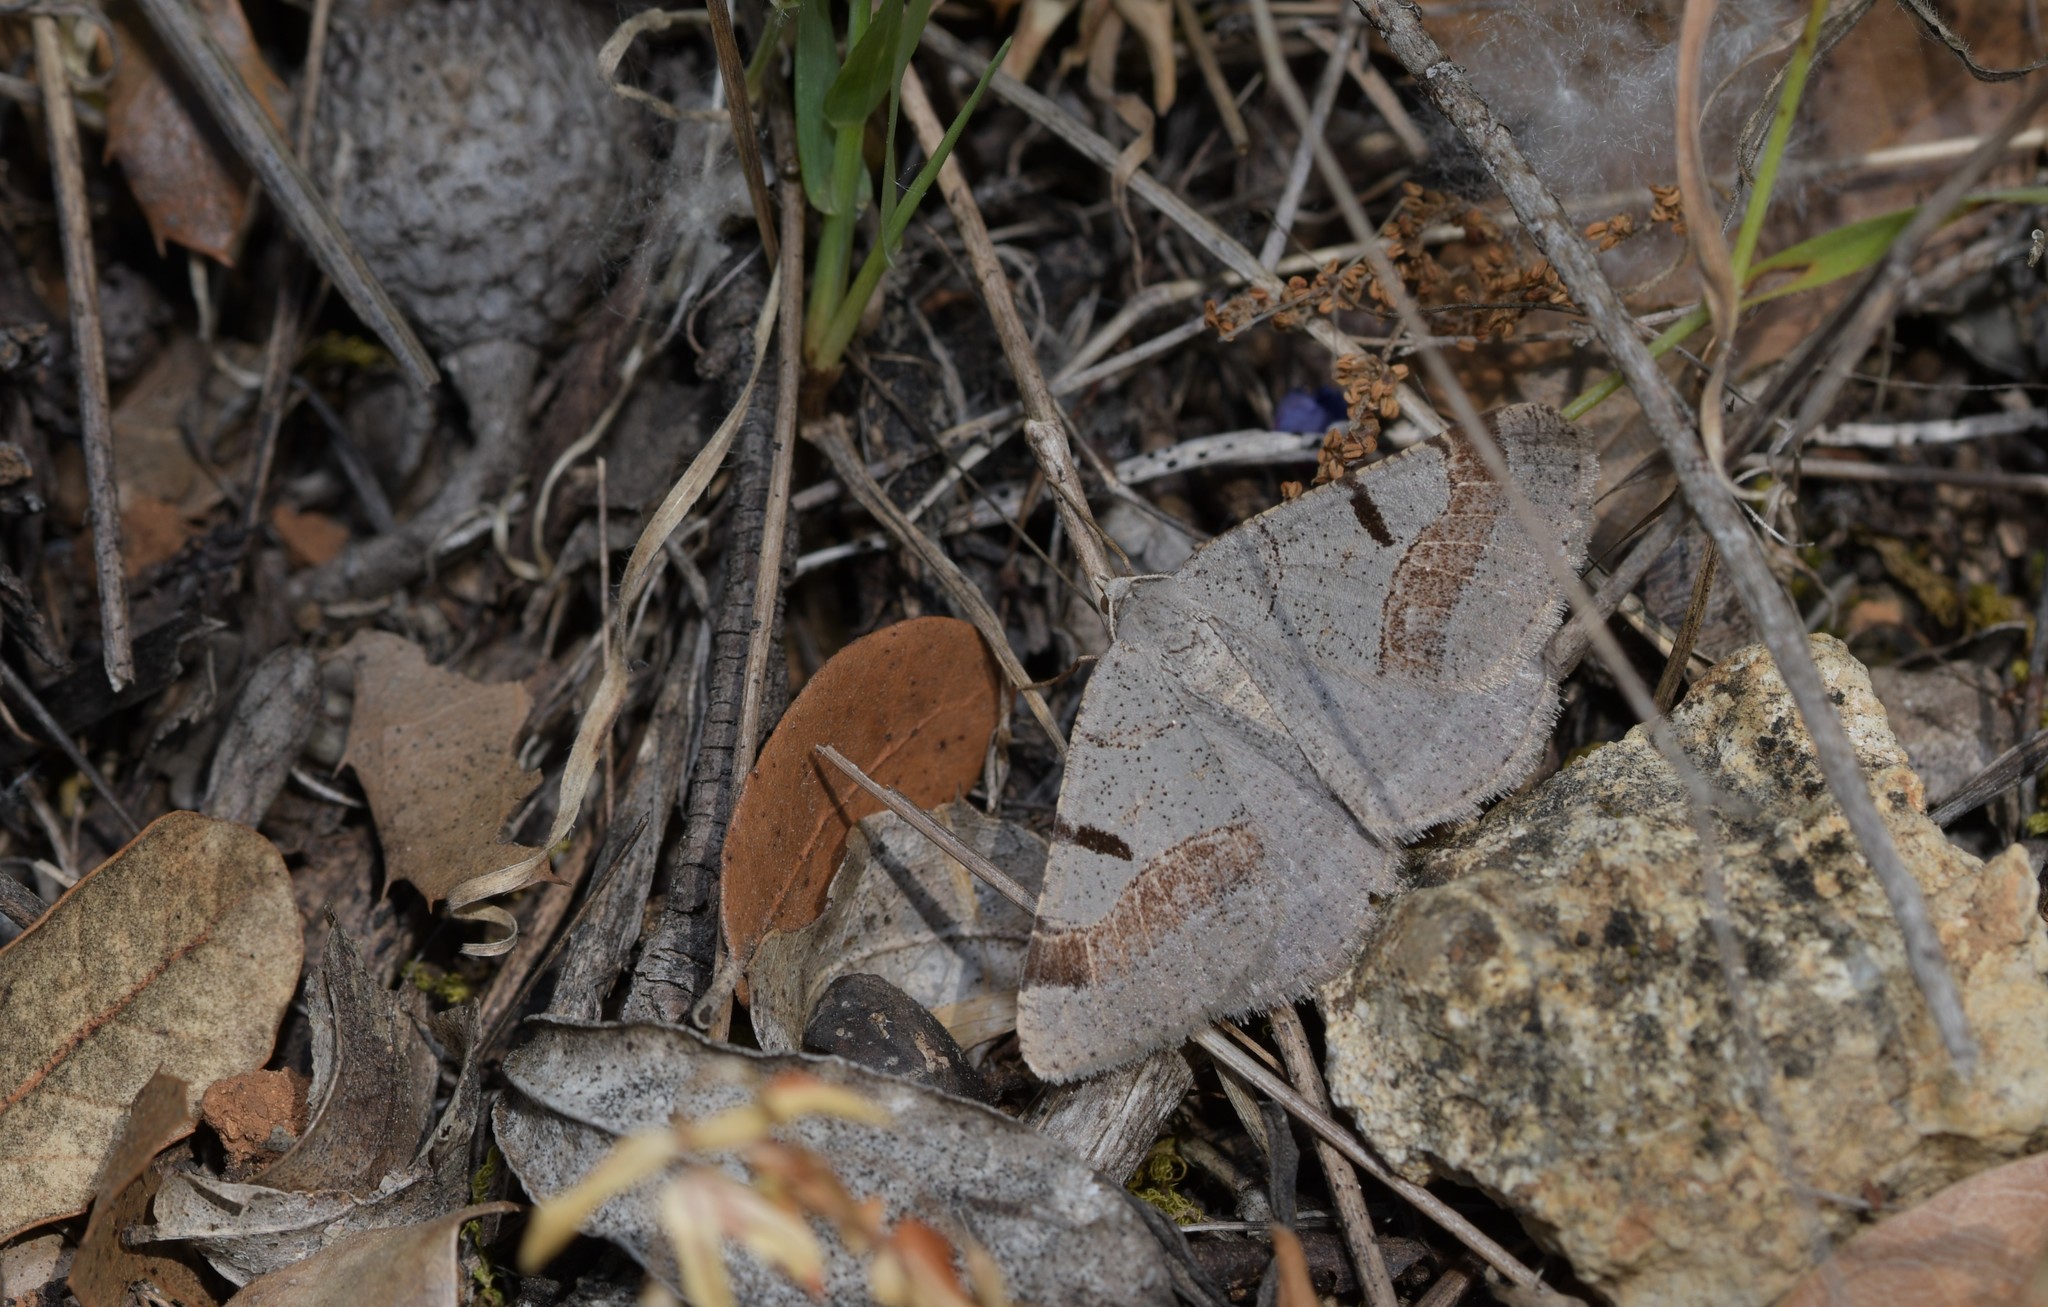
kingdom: Animalia
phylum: Arthropoda
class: Insecta
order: Lepidoptera
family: Geometridae
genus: Itame
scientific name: Itame vincularia
